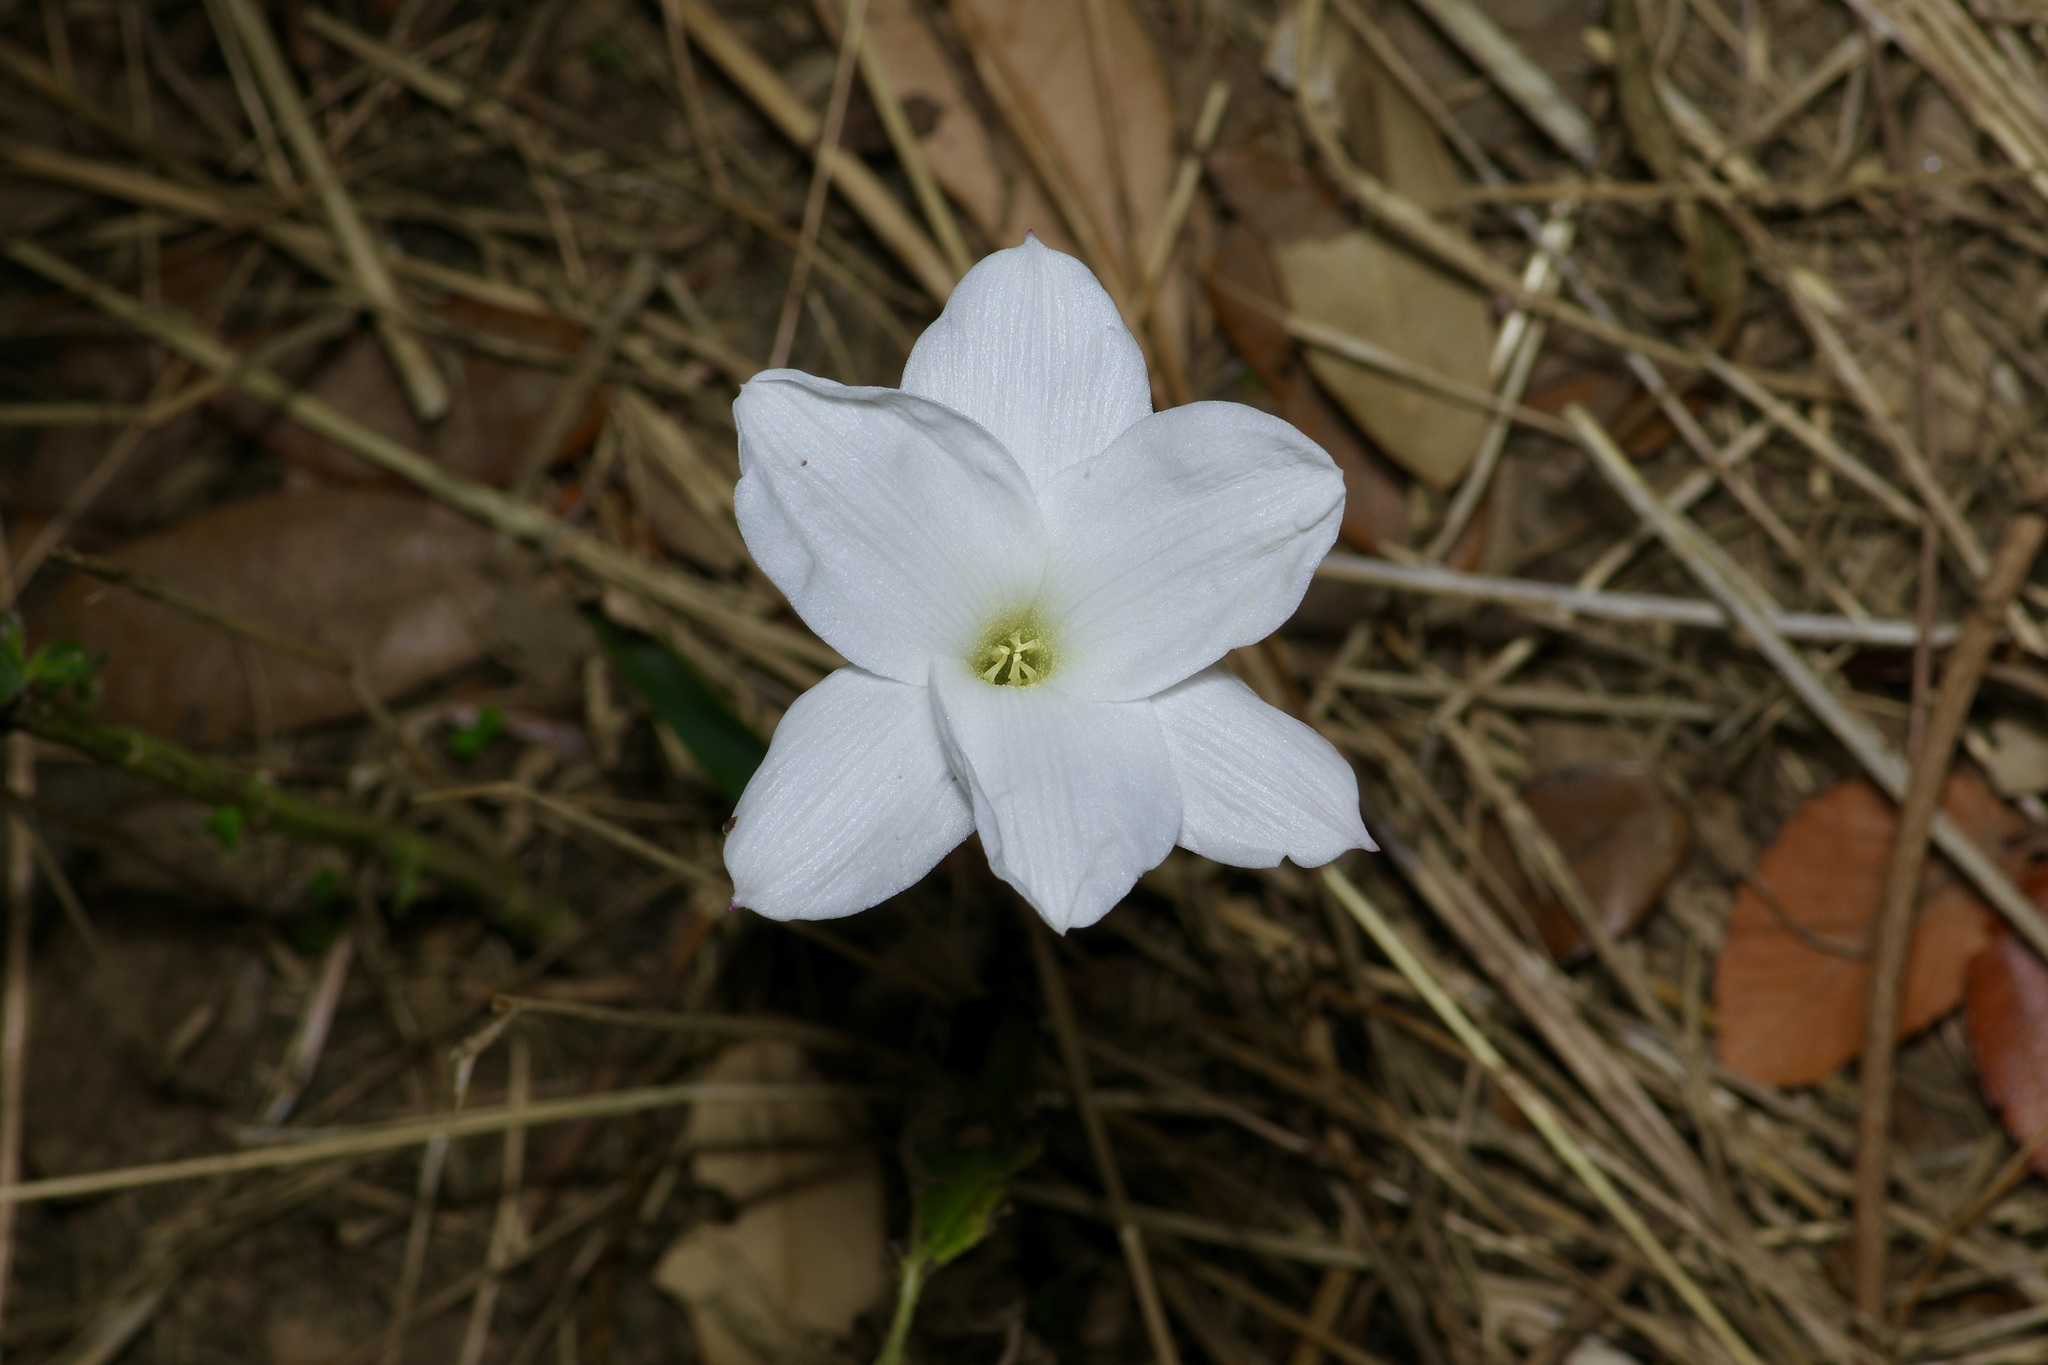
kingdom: Plantae
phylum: Tracheophyta
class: Liliopsida
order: Asparagales
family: Amaryllidaceae
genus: Zephyranthes
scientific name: Zephyranthes drummondii
